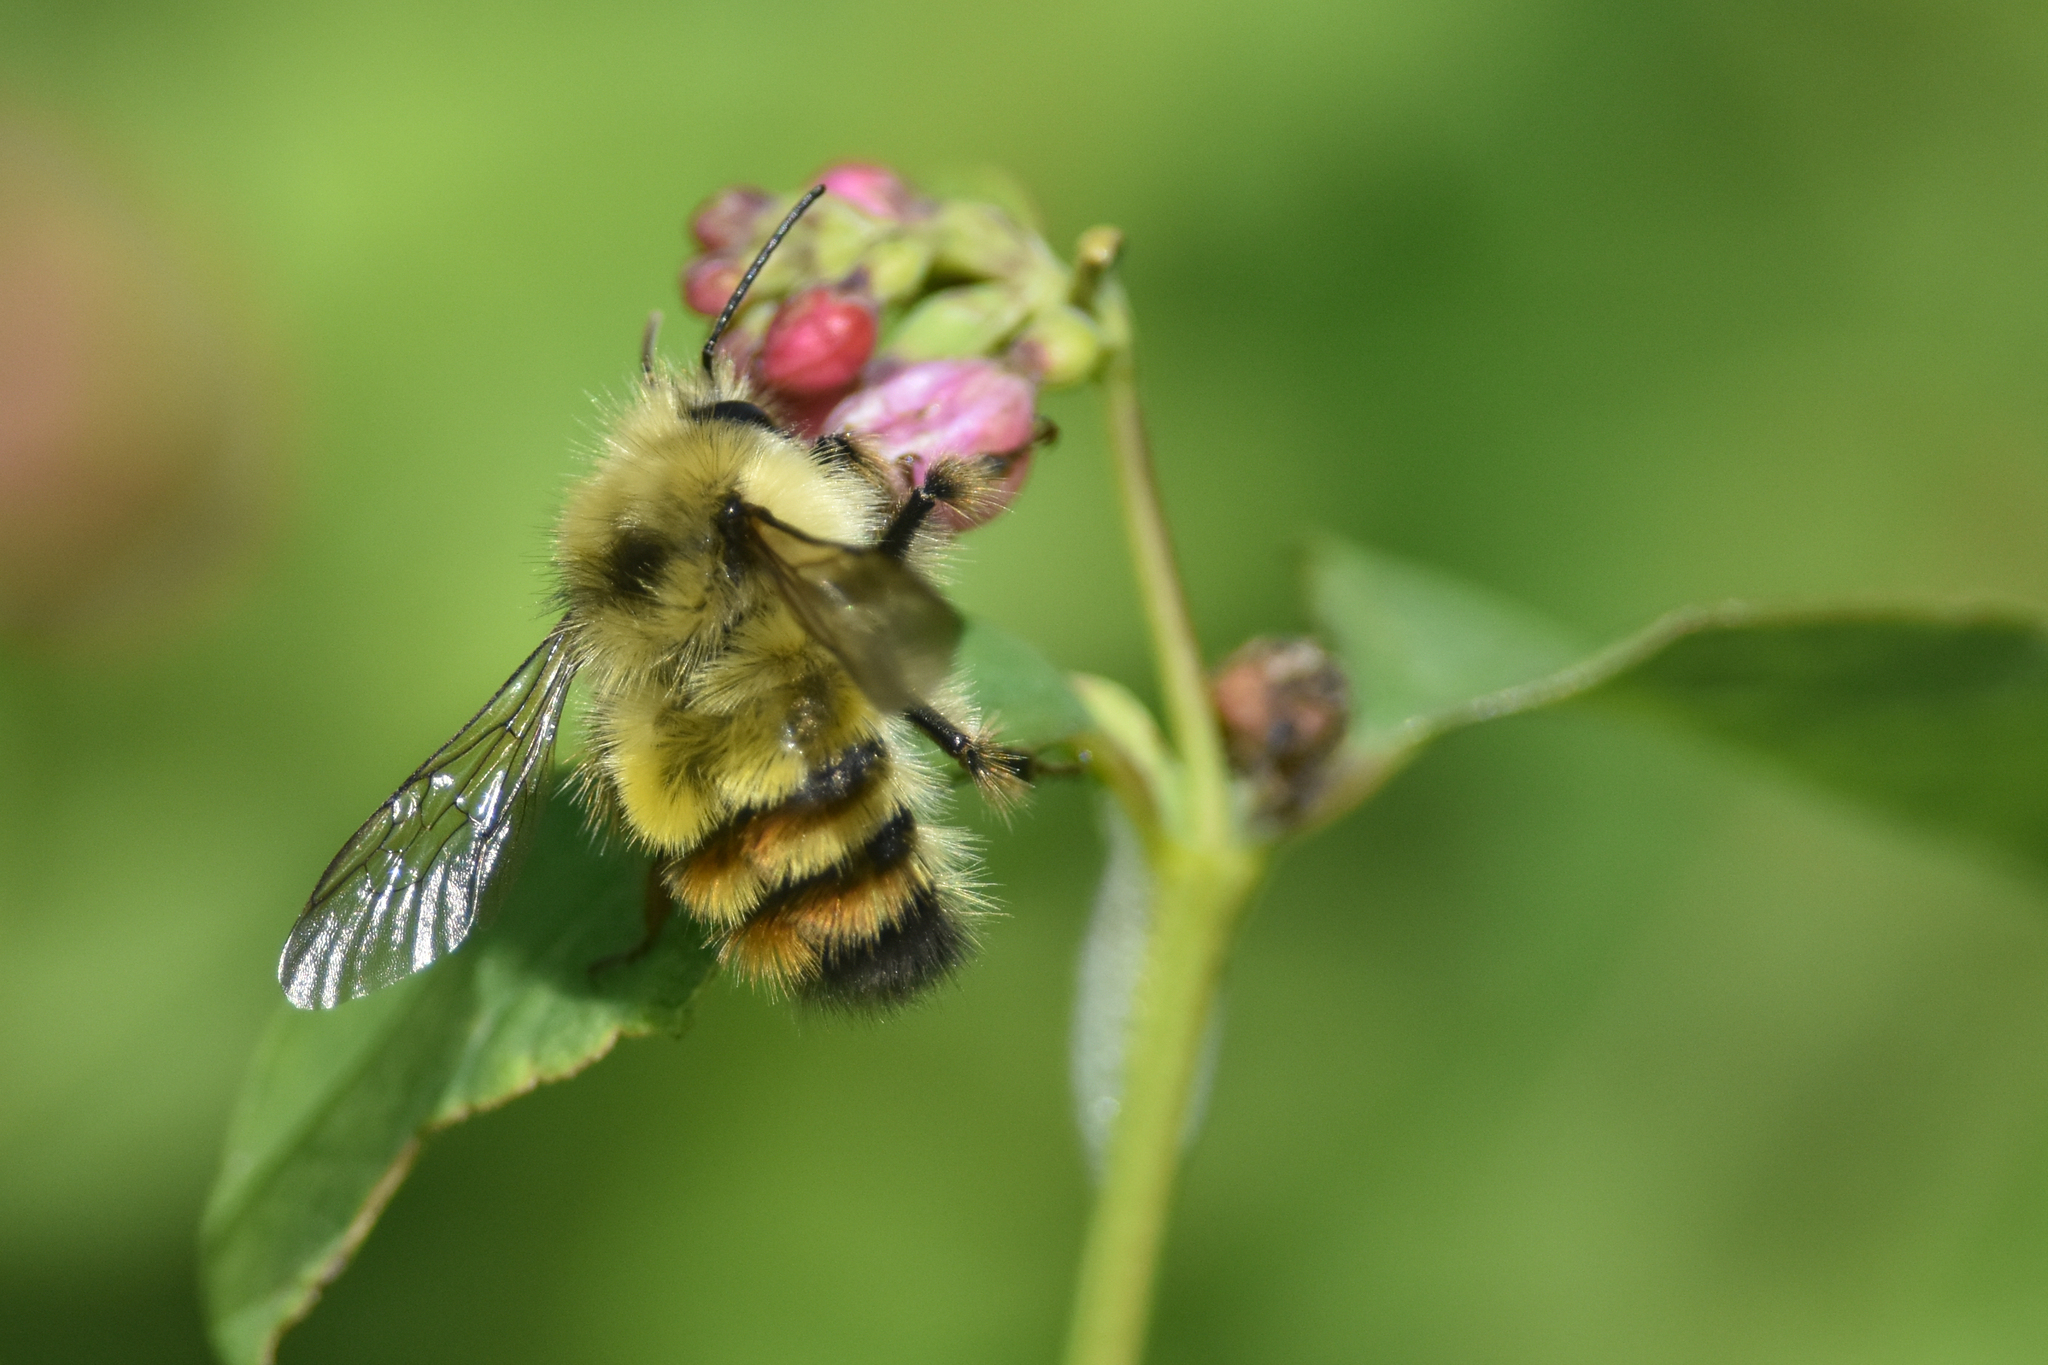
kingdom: Animalia
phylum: Arthropoda
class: Insecta
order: Hymenoptera
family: Apidae
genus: Bombus
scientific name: Bombus flavifrons
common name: Yellow head bumble bee
